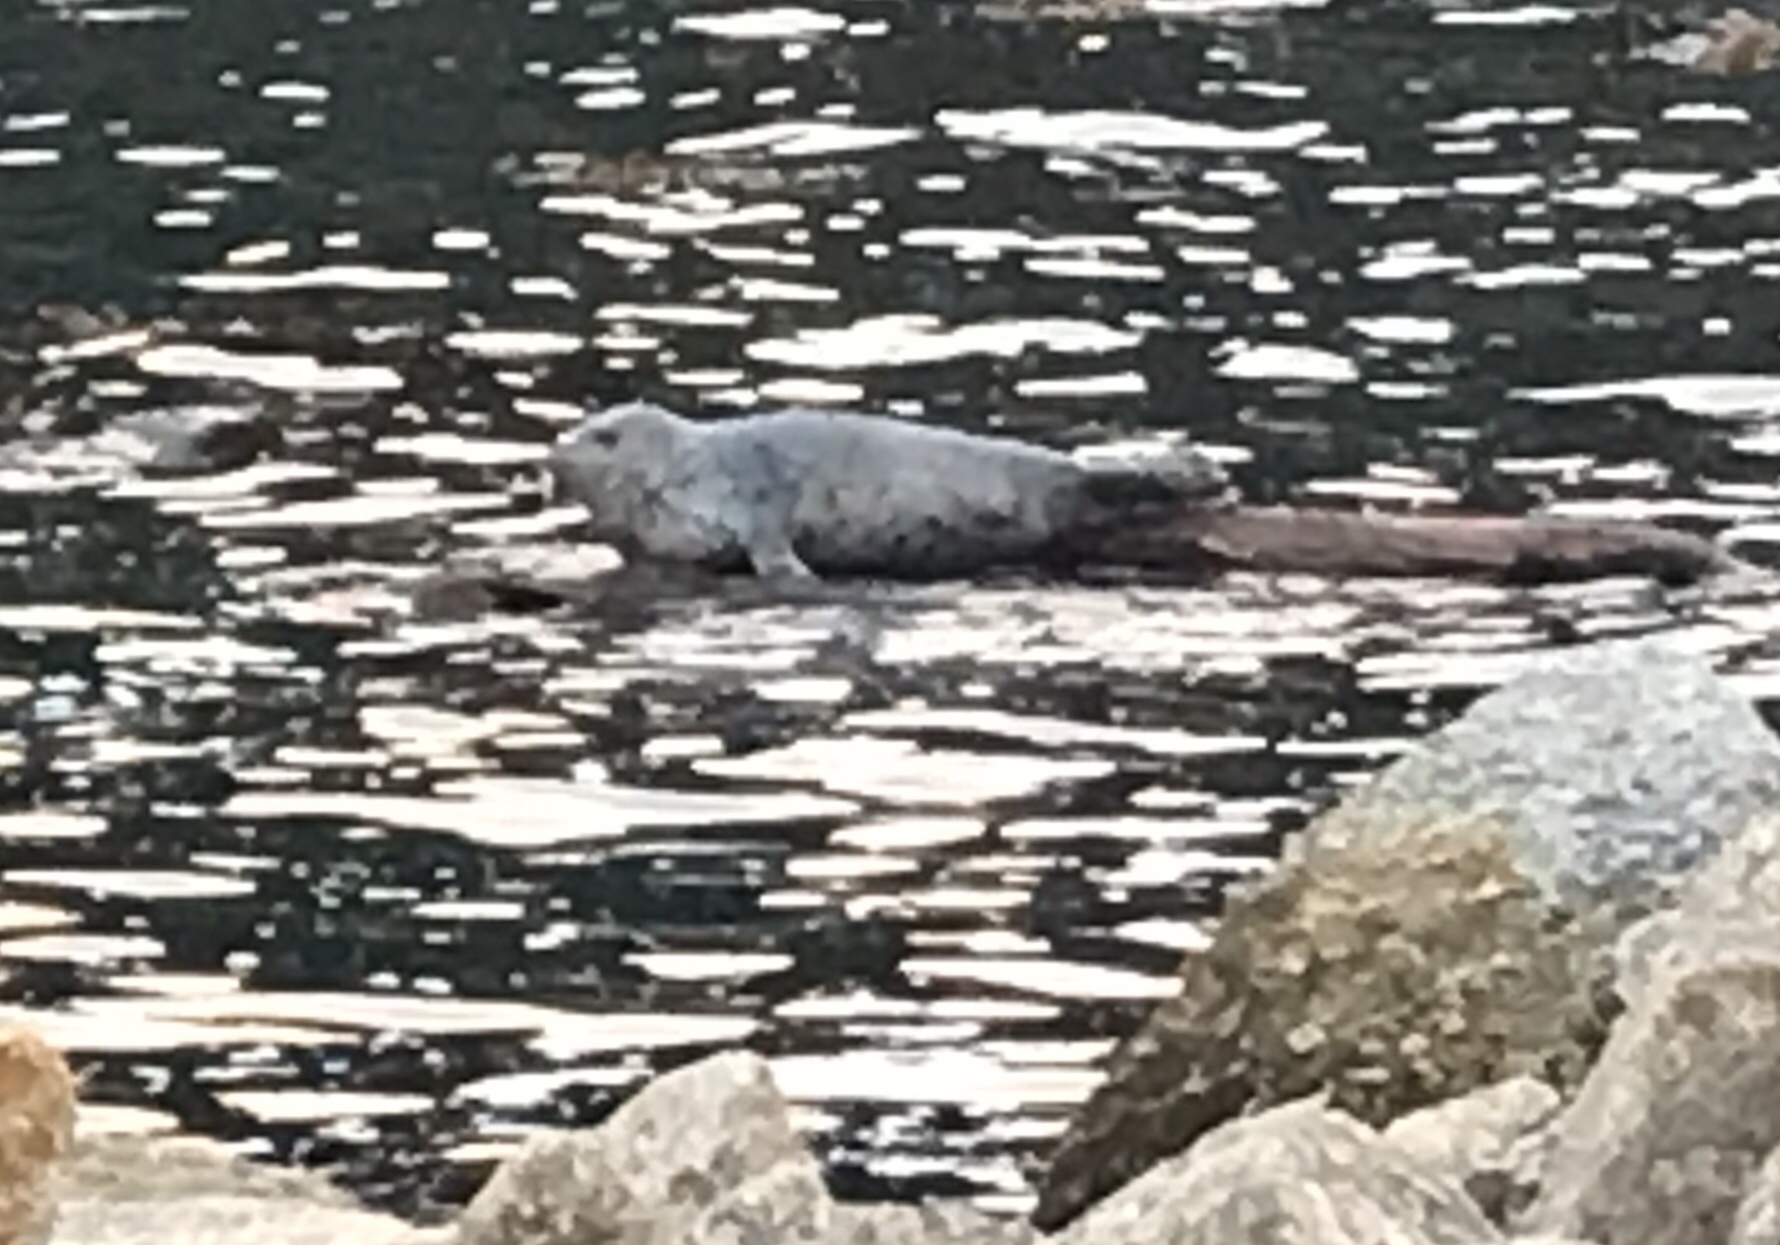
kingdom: Animalia
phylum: Chordata
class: Mammalia
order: Carnivora
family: Phocidae
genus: Phoca
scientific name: Phoca vitulina
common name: Harbor seal
